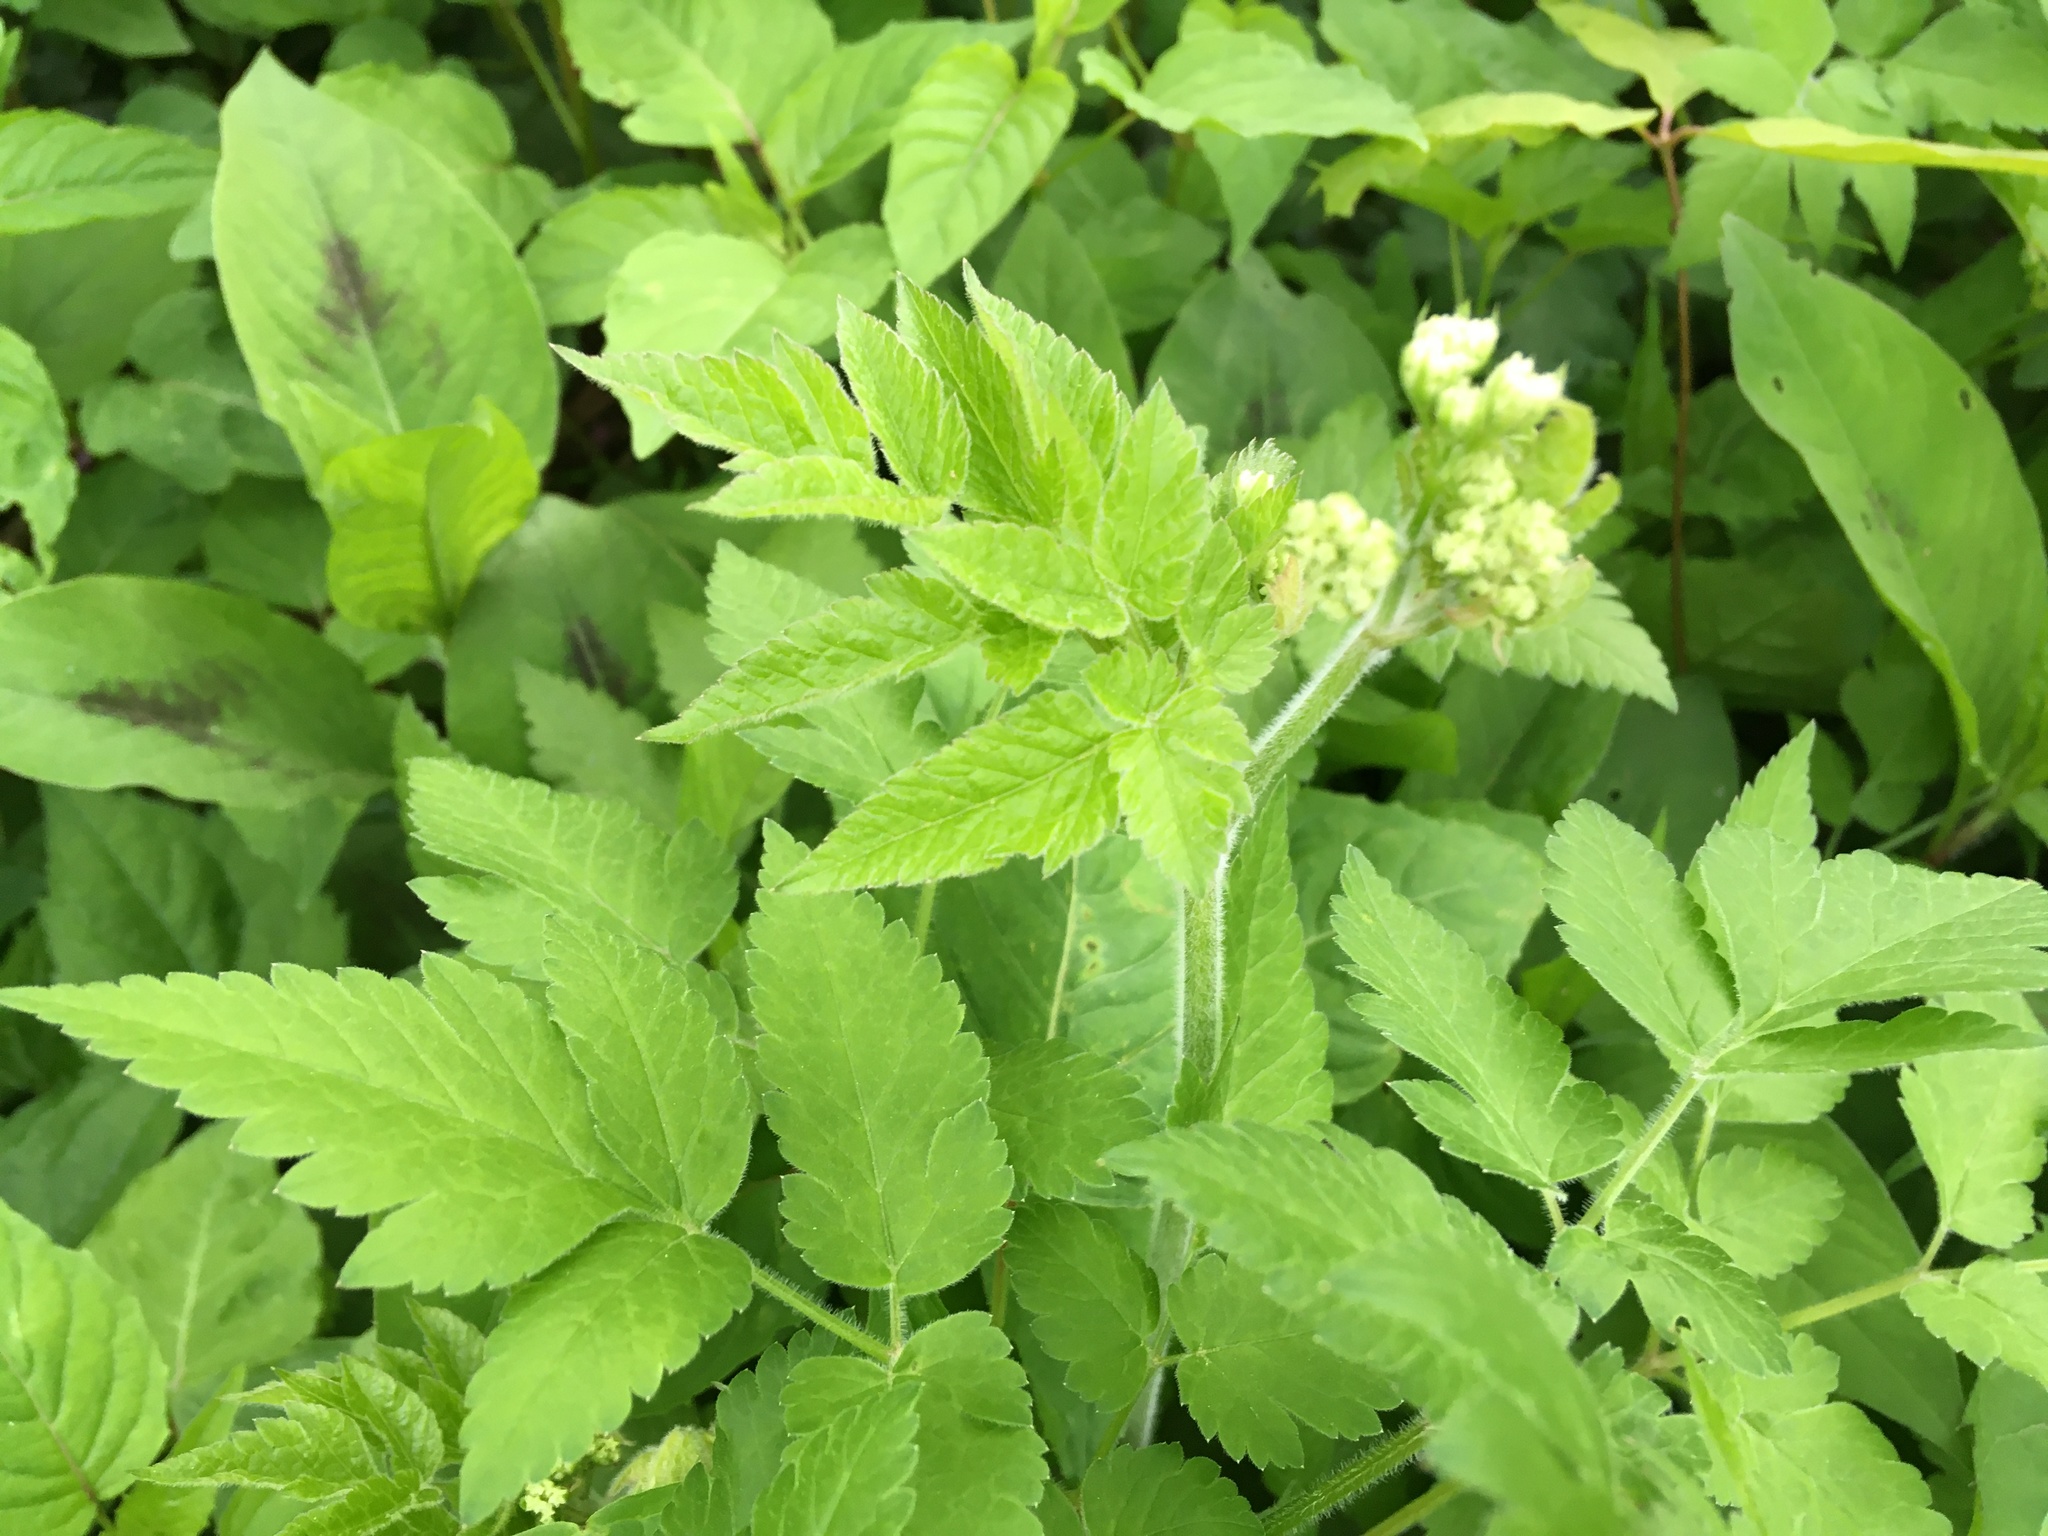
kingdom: Plantae
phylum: Tracheophyta
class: Magnoliopsida
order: Apiales
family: Apiaceae
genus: Osmorhiza
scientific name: Osmorhiza claytonii
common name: Hairy sweet cicely
